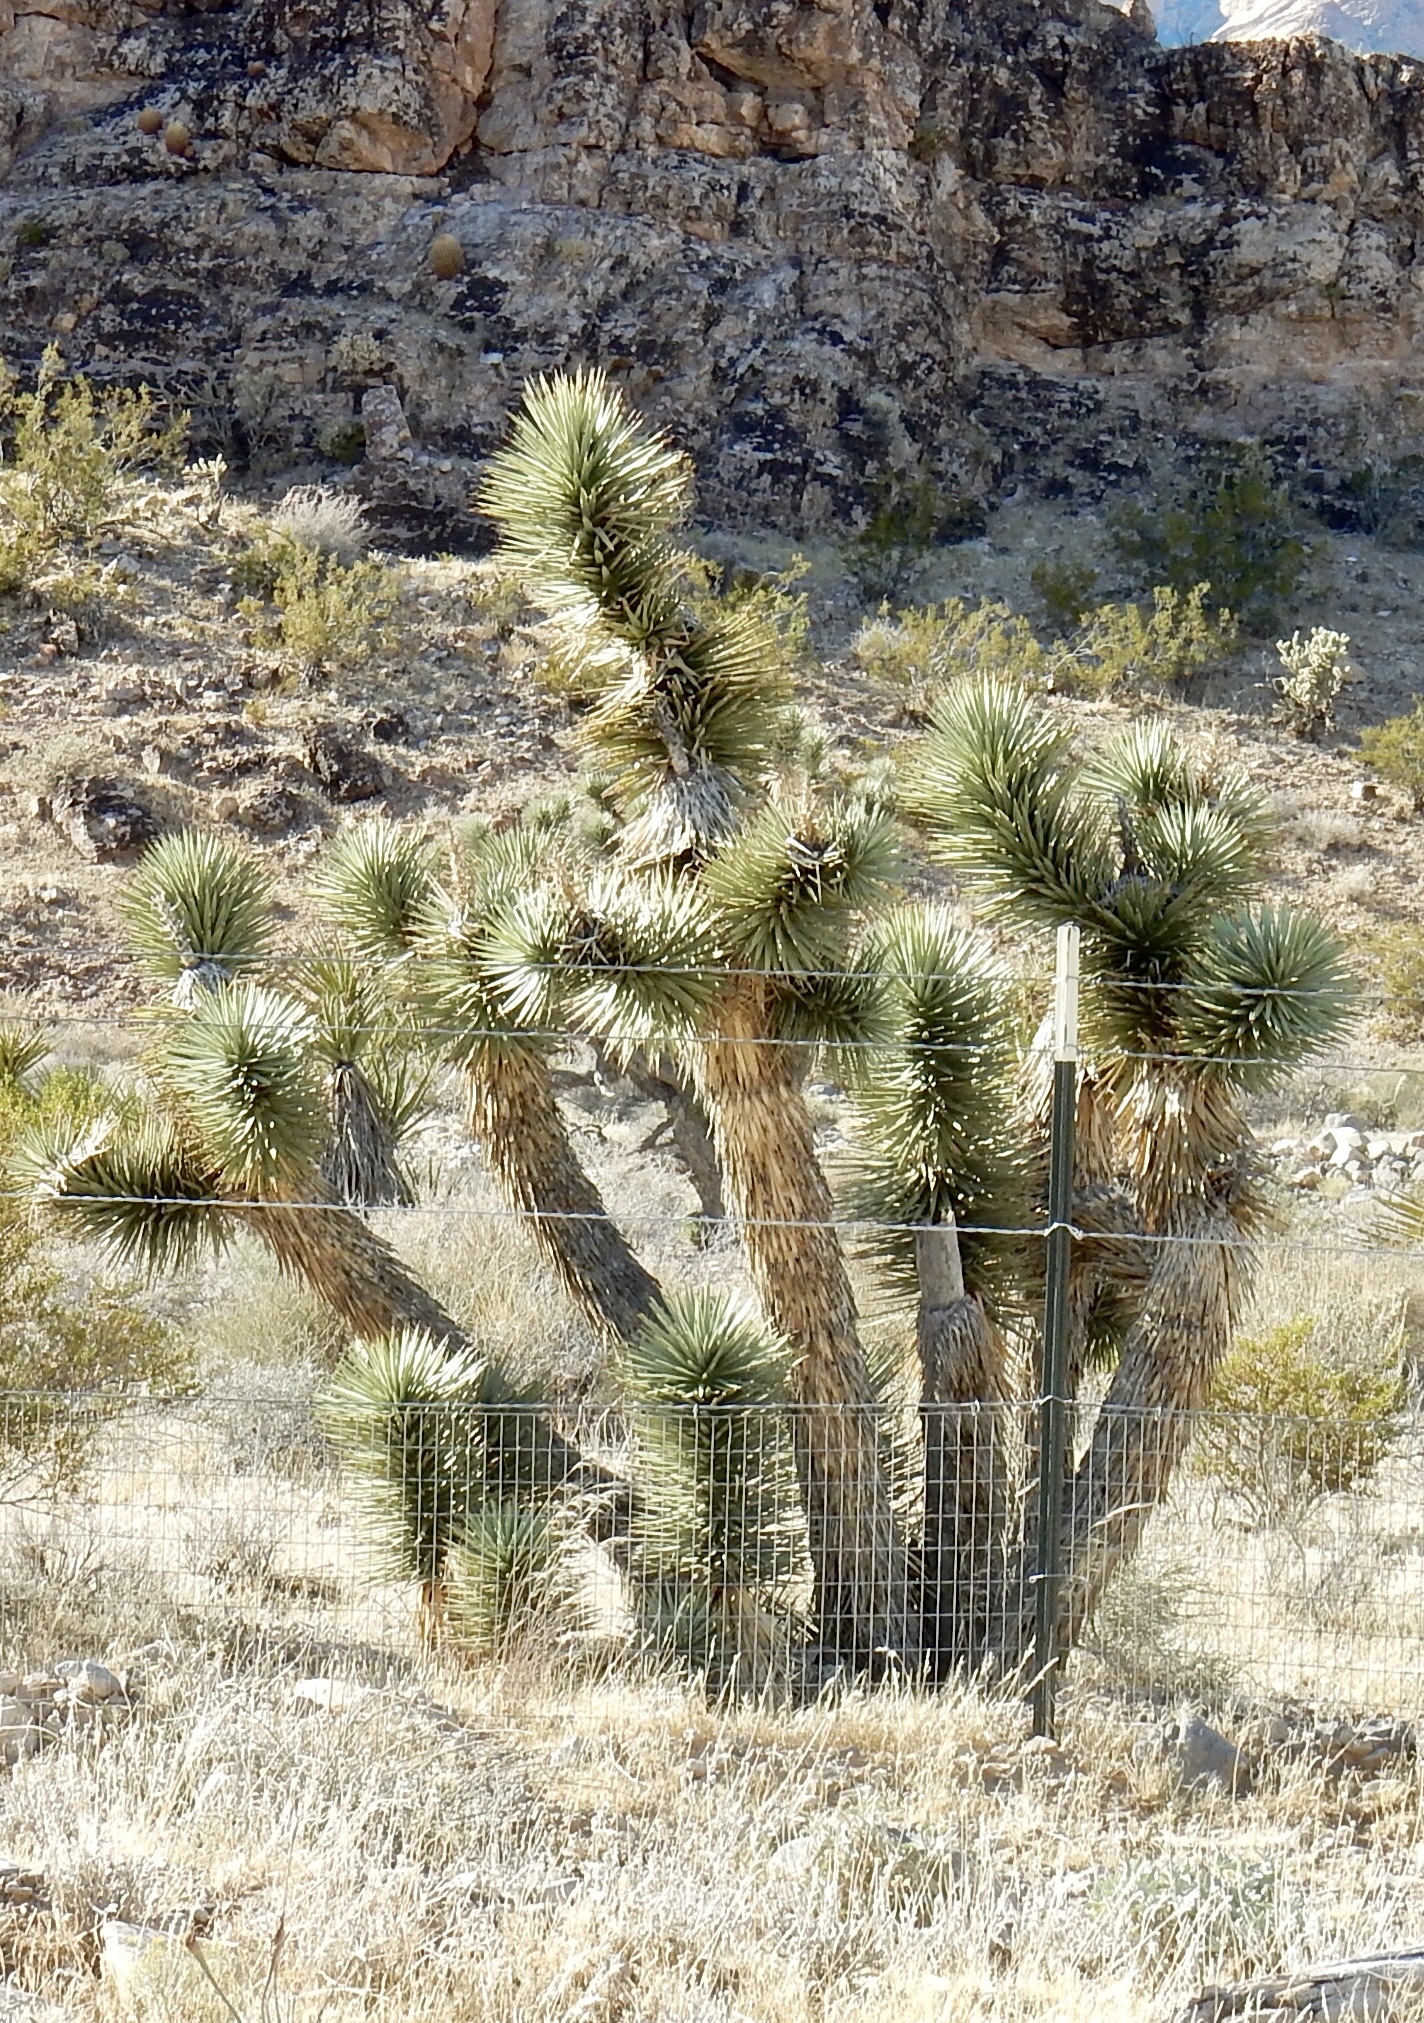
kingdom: Plantae
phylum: Tracheophyta
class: Liliopsida
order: Asparagales
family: Asparagaceae
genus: Yucca
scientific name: Yucca brevifolia
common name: Joshua tree
